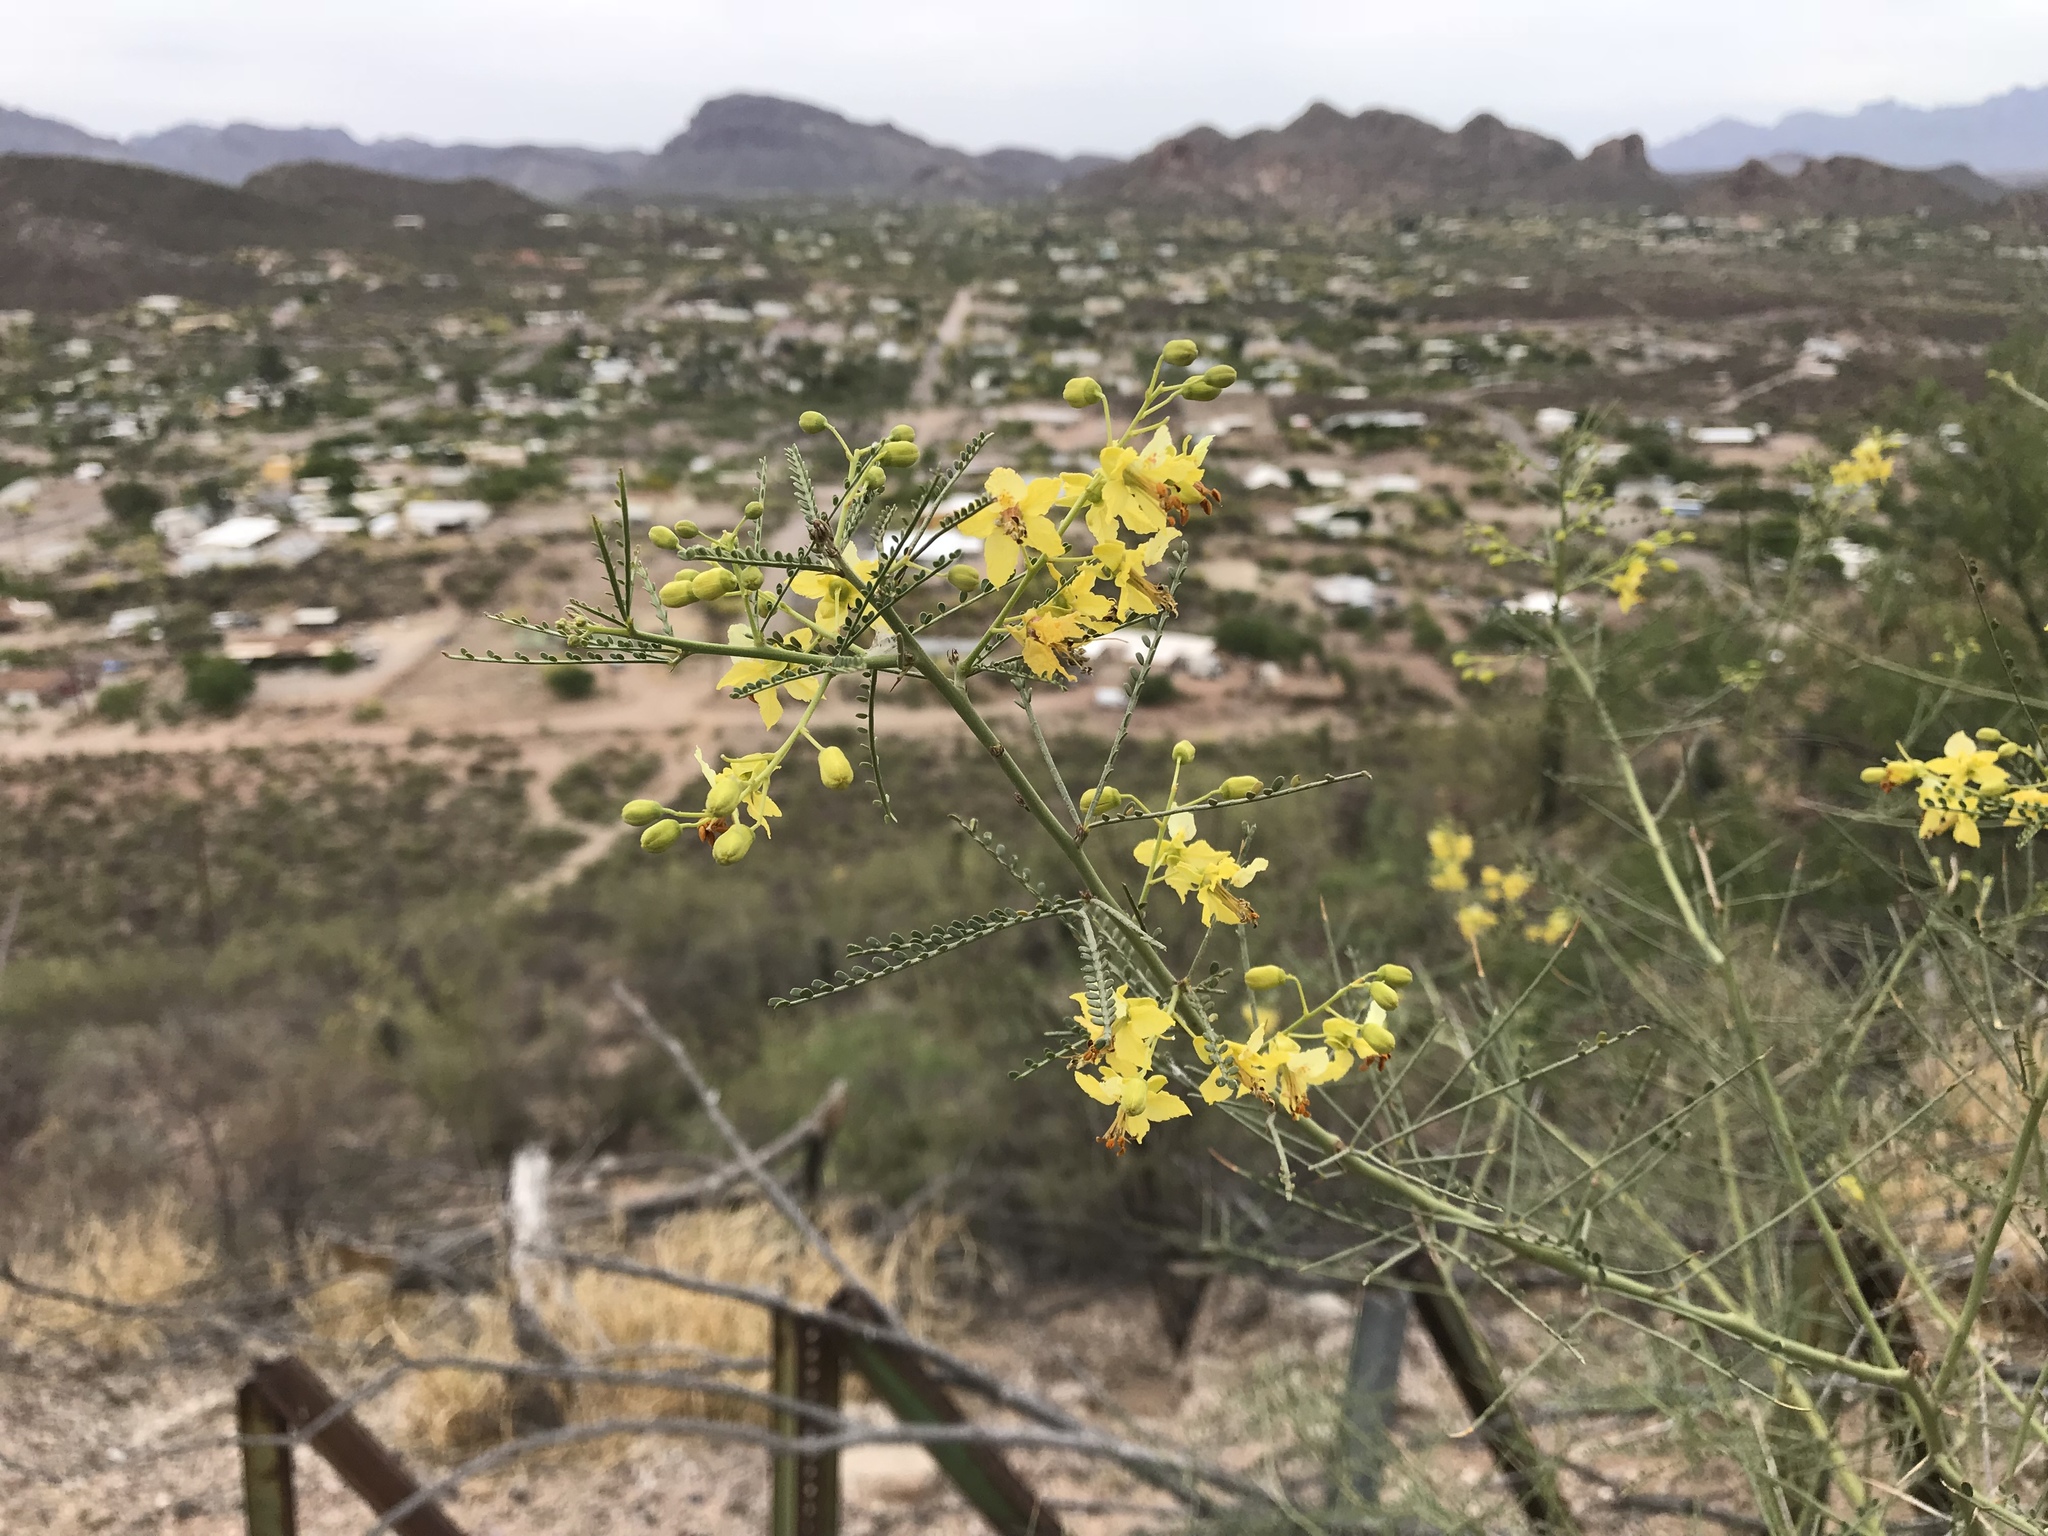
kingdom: Plantae
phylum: Tracheophyta
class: Magnoliopsida
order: Fabales
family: Fabaceae
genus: Parkinsonia
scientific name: Parkinsonia aculeata
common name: Jerusalem thorn
